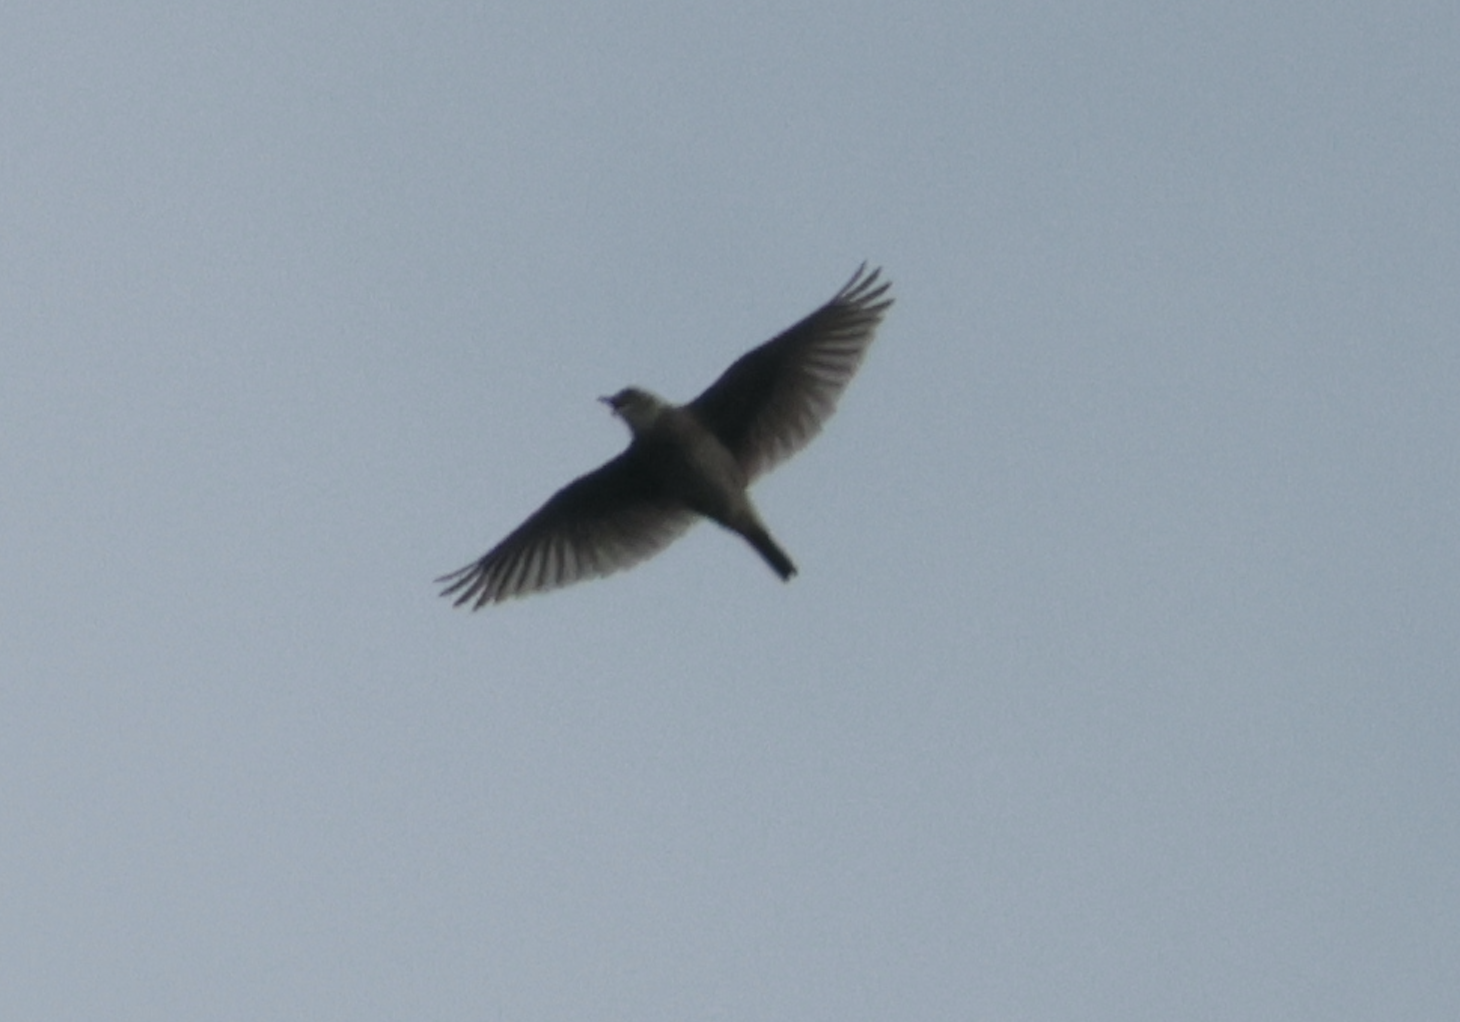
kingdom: Animalia
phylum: Chordata
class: Aves
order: Passeriformes
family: Alaudidae
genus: Alauda
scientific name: Alauda gulgula
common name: Oriental skylark
